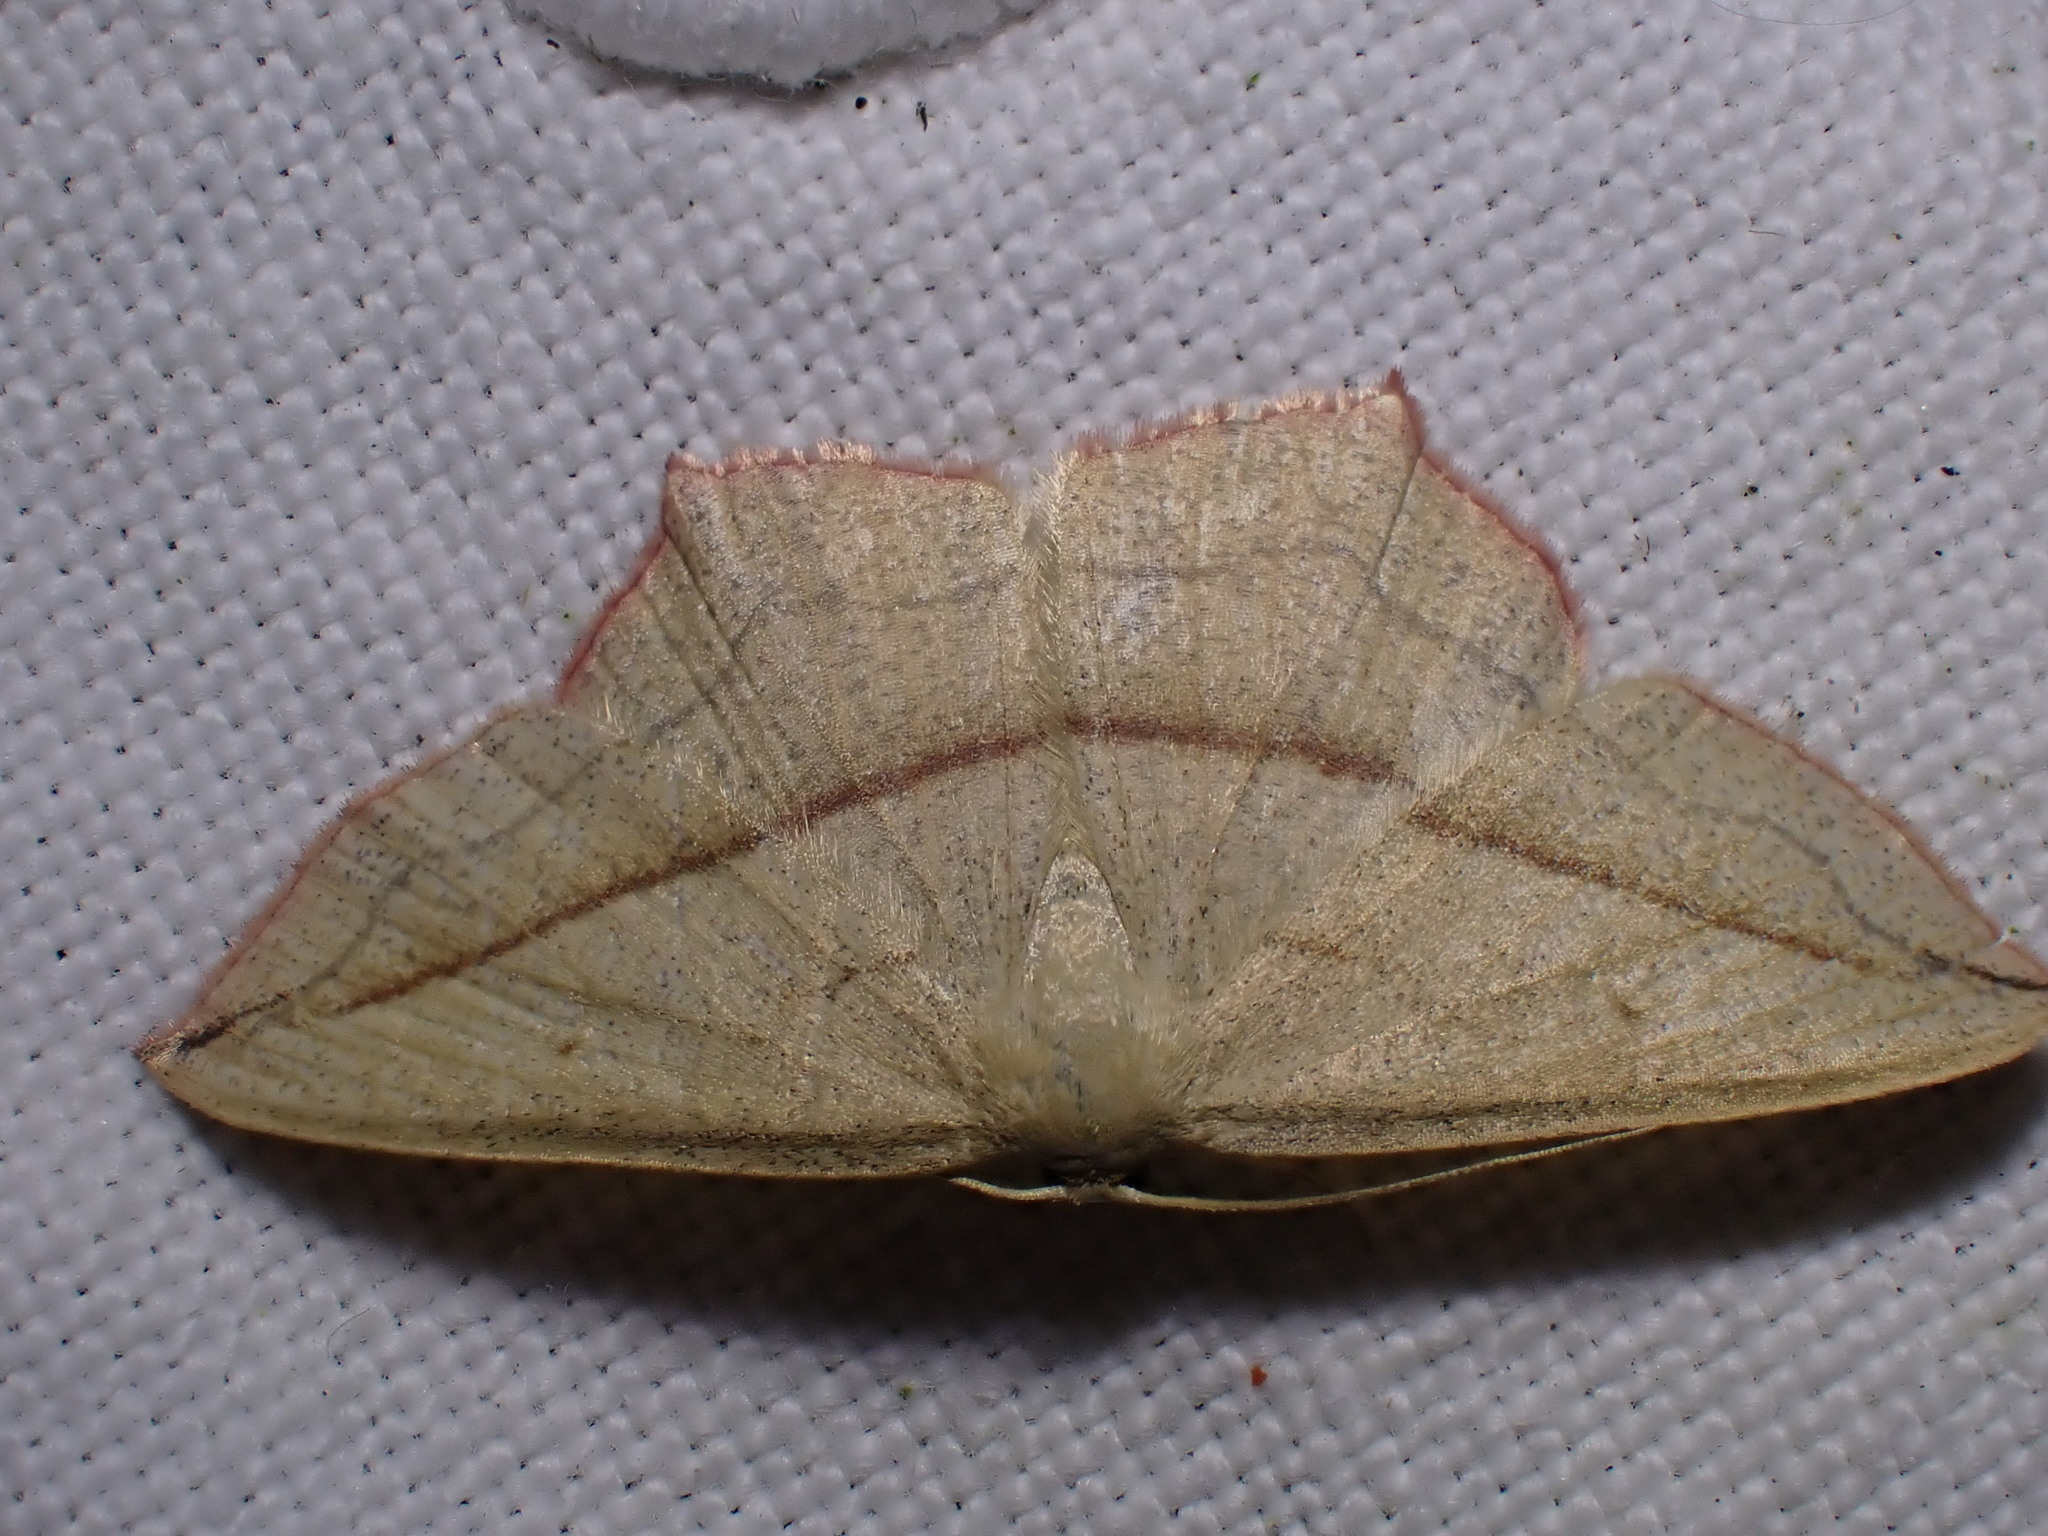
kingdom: Animalia
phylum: Arthropoda
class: Insecta
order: Lepidoptera
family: Geometridae
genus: Timandra
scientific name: Timandra comae
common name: Blood-vein
